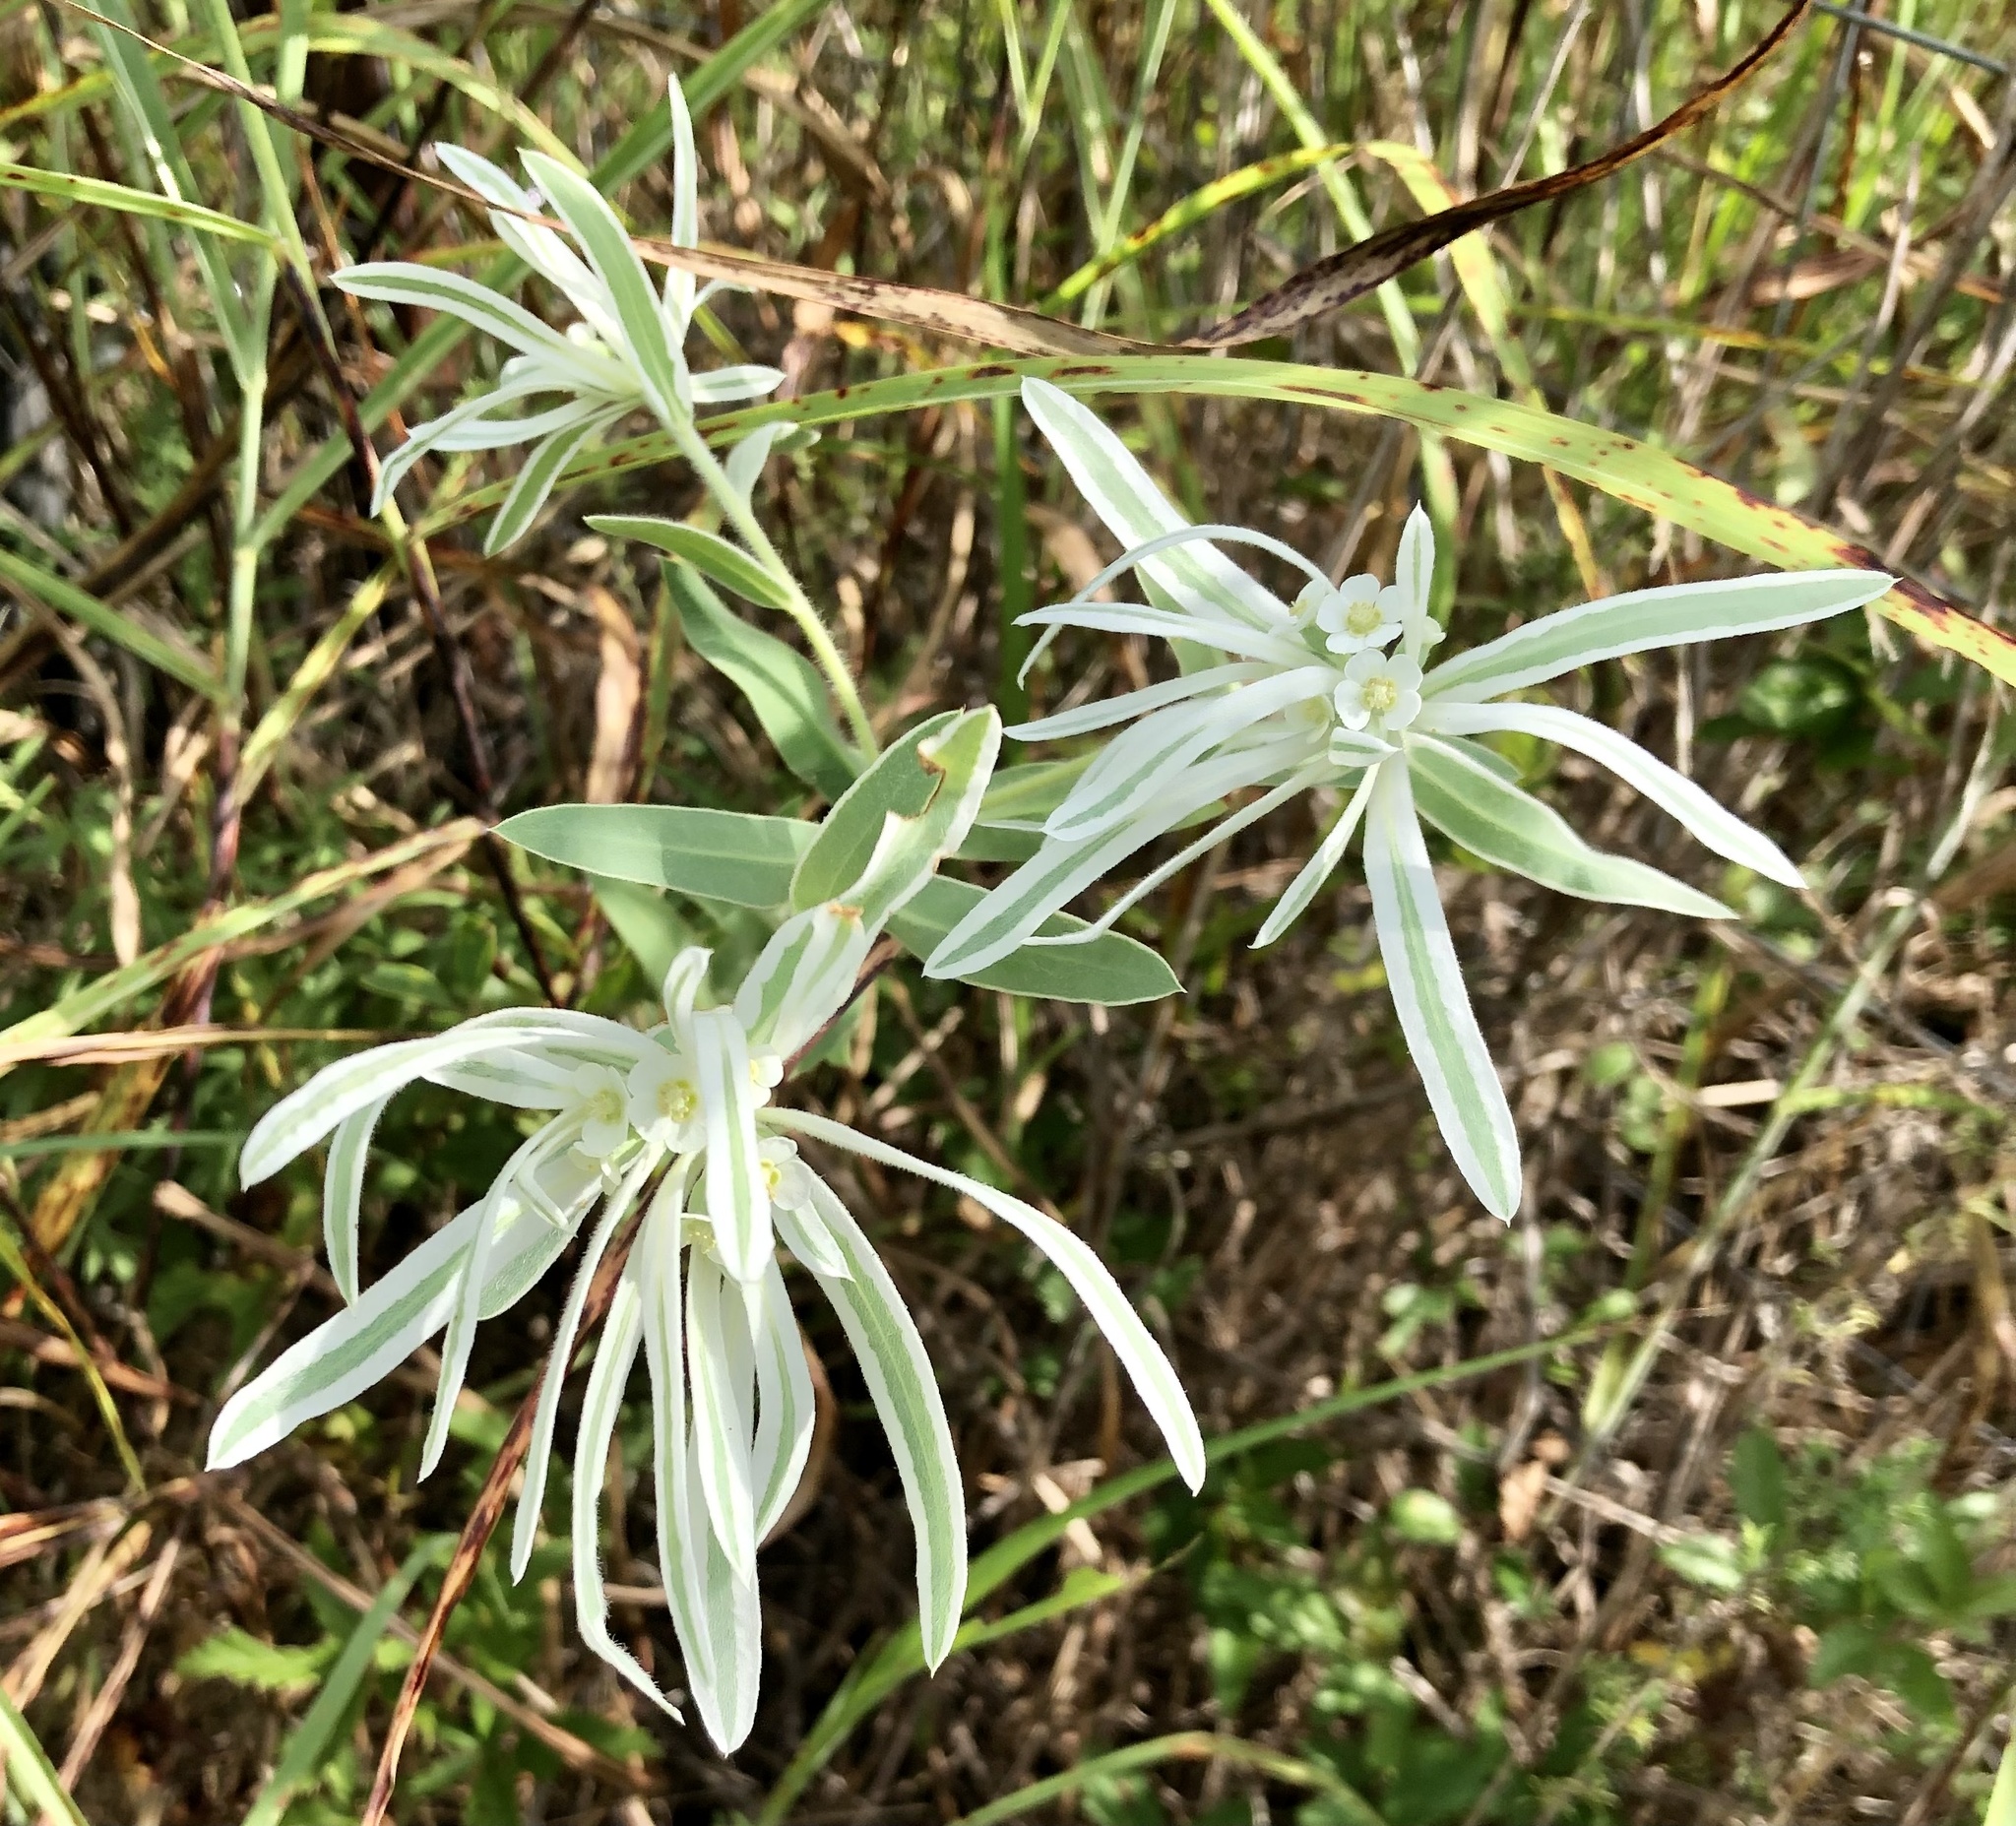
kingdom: Plantae
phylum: Tracheophyta
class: Magnoliopsida
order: Malpighiales
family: Euphorbiaceae
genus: Euphorbia
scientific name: Euphorbia bicolor
